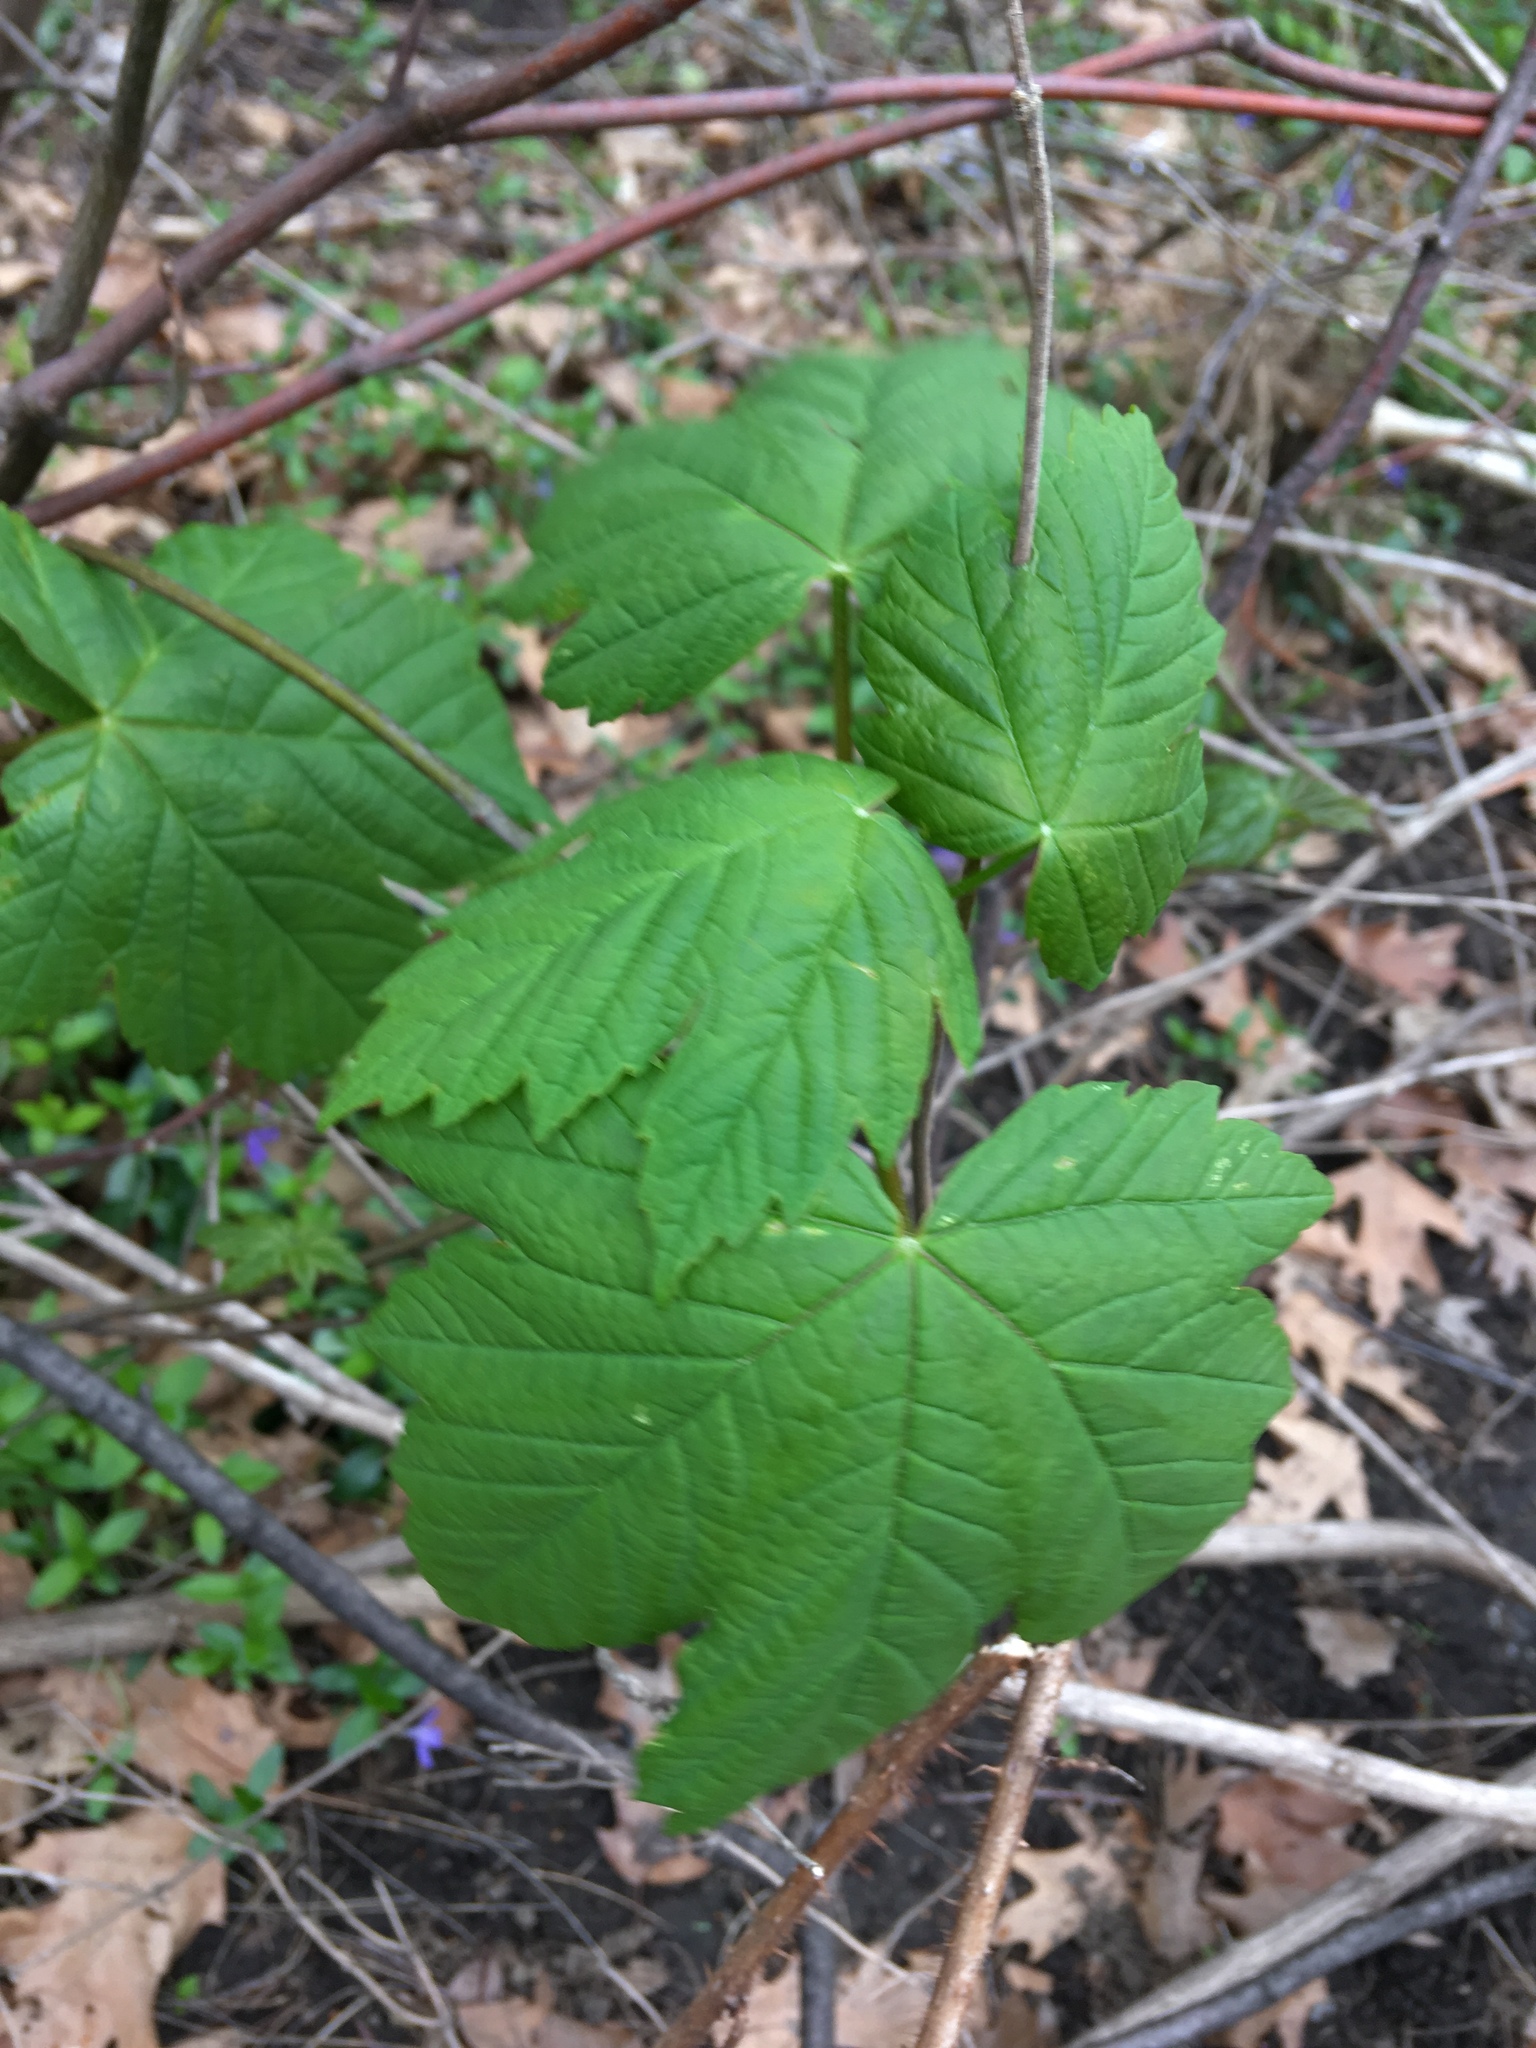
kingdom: Plantae
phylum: Tracheophyta
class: Magnoliopsida
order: Sapindales
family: Sapindaceae
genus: Acer
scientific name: Acer pseudoplatanus
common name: Sycamore
